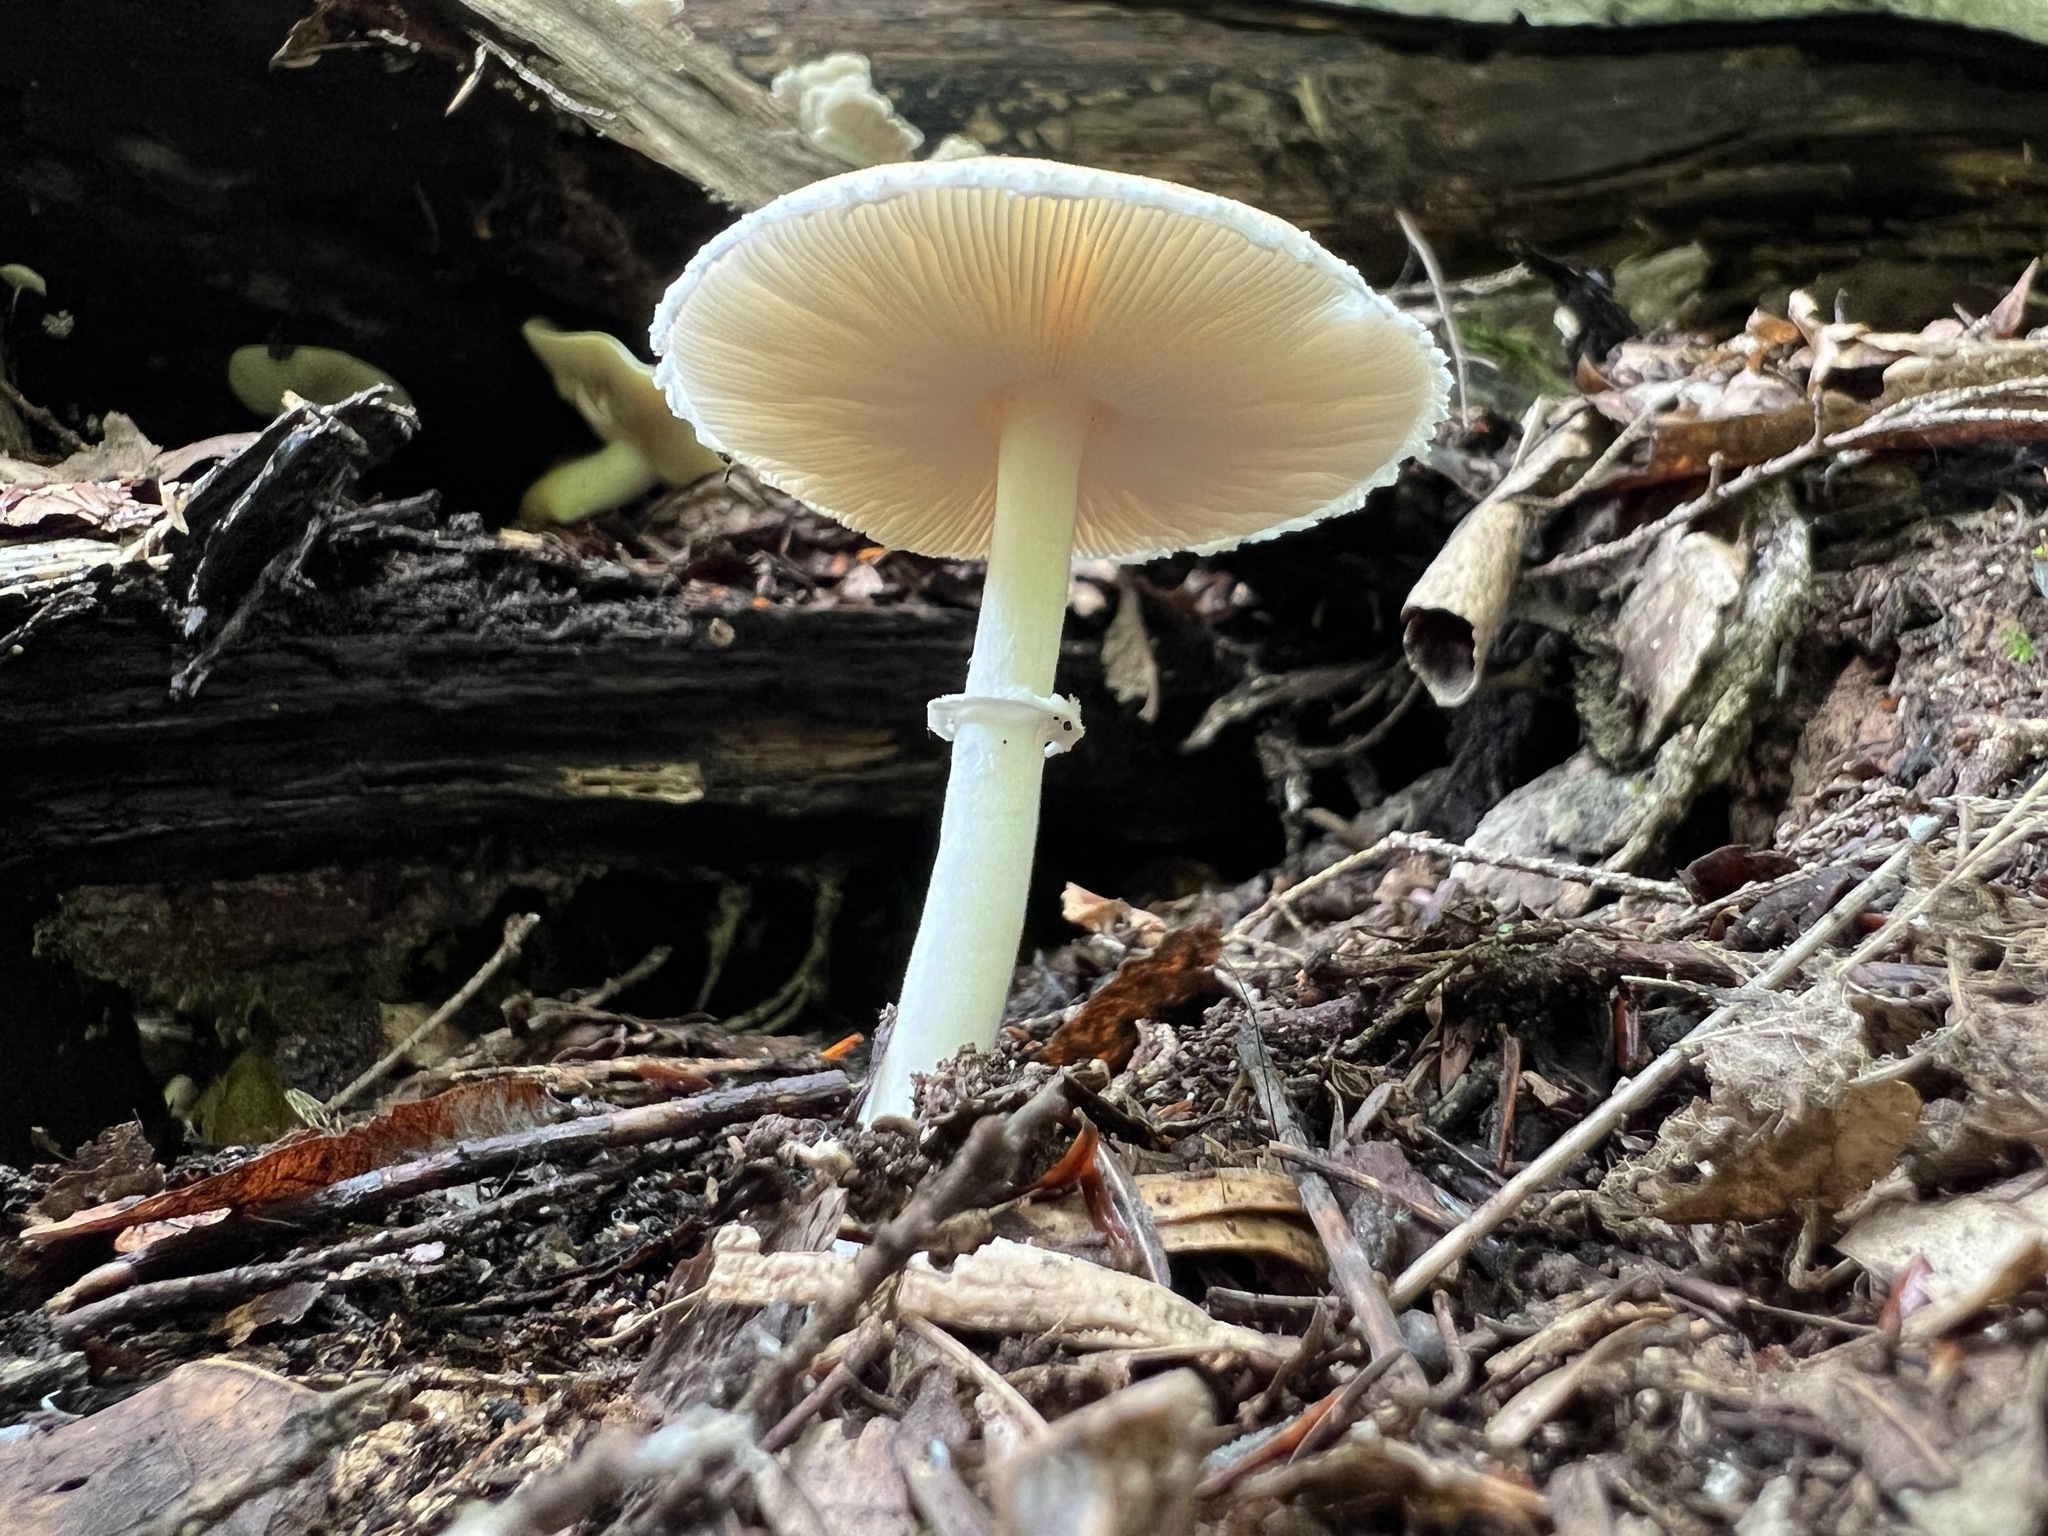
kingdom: Fungi
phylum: Basidiomycota
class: Agaricomycetes
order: Agaricales
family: Agaricaceae
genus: Lepiota
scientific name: Lepiota rubrotinctoides
